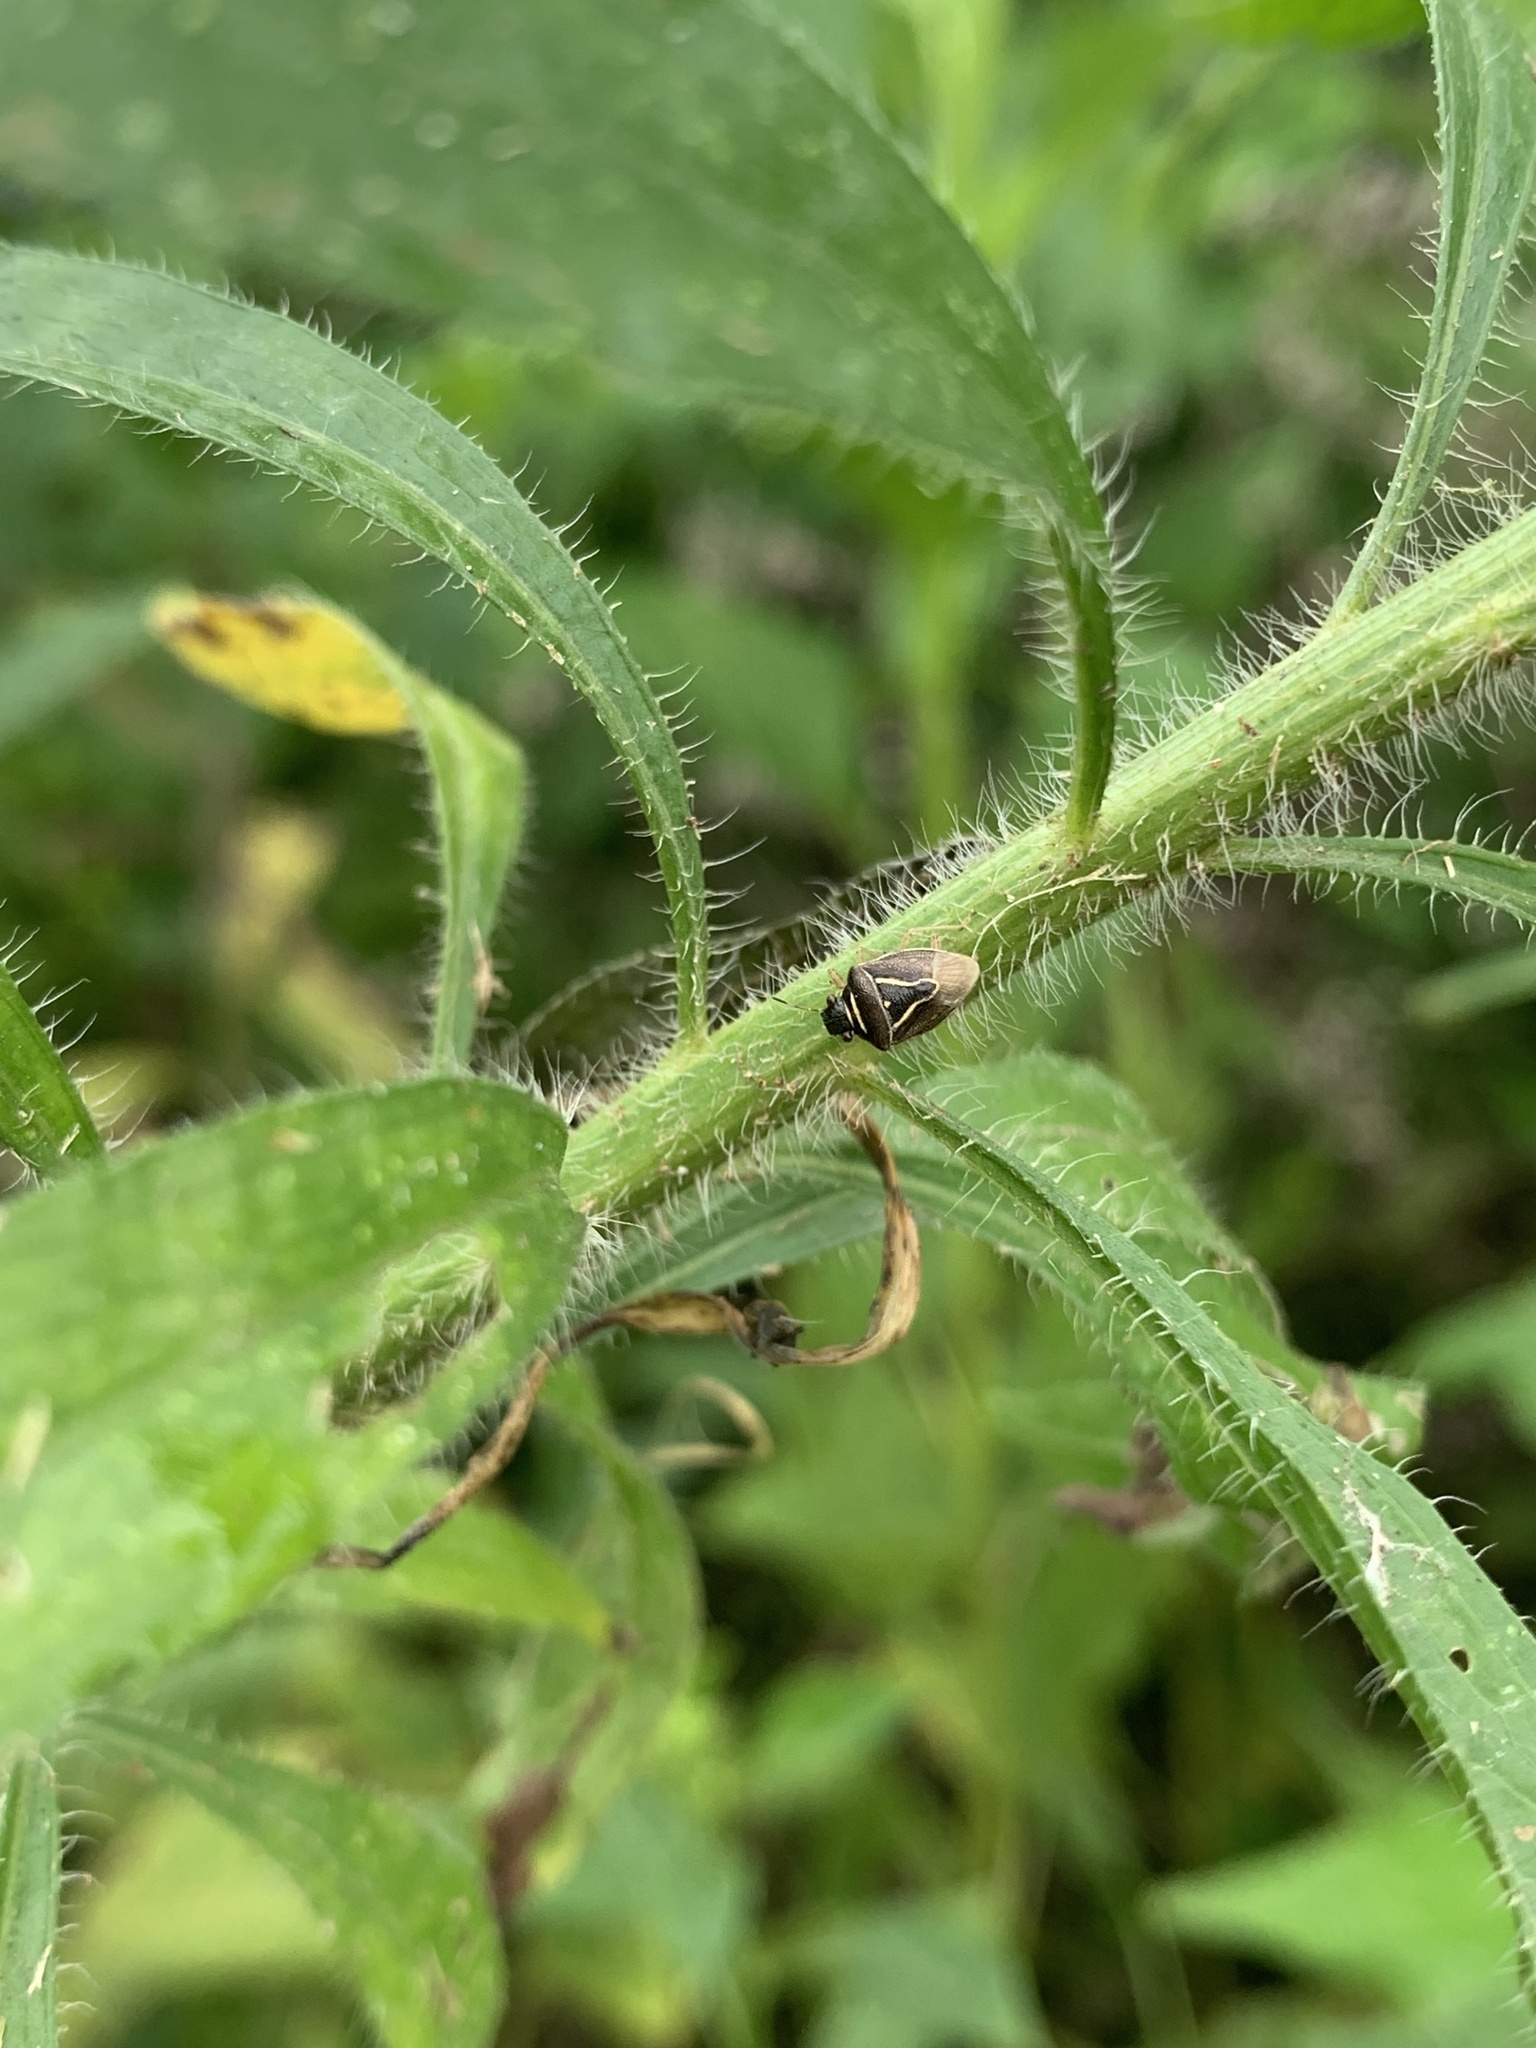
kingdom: Animalia
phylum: Arthropoda
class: Insecta
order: Hemiptera
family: Pentatomidae
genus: Mormidea
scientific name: Mormidea lugens
